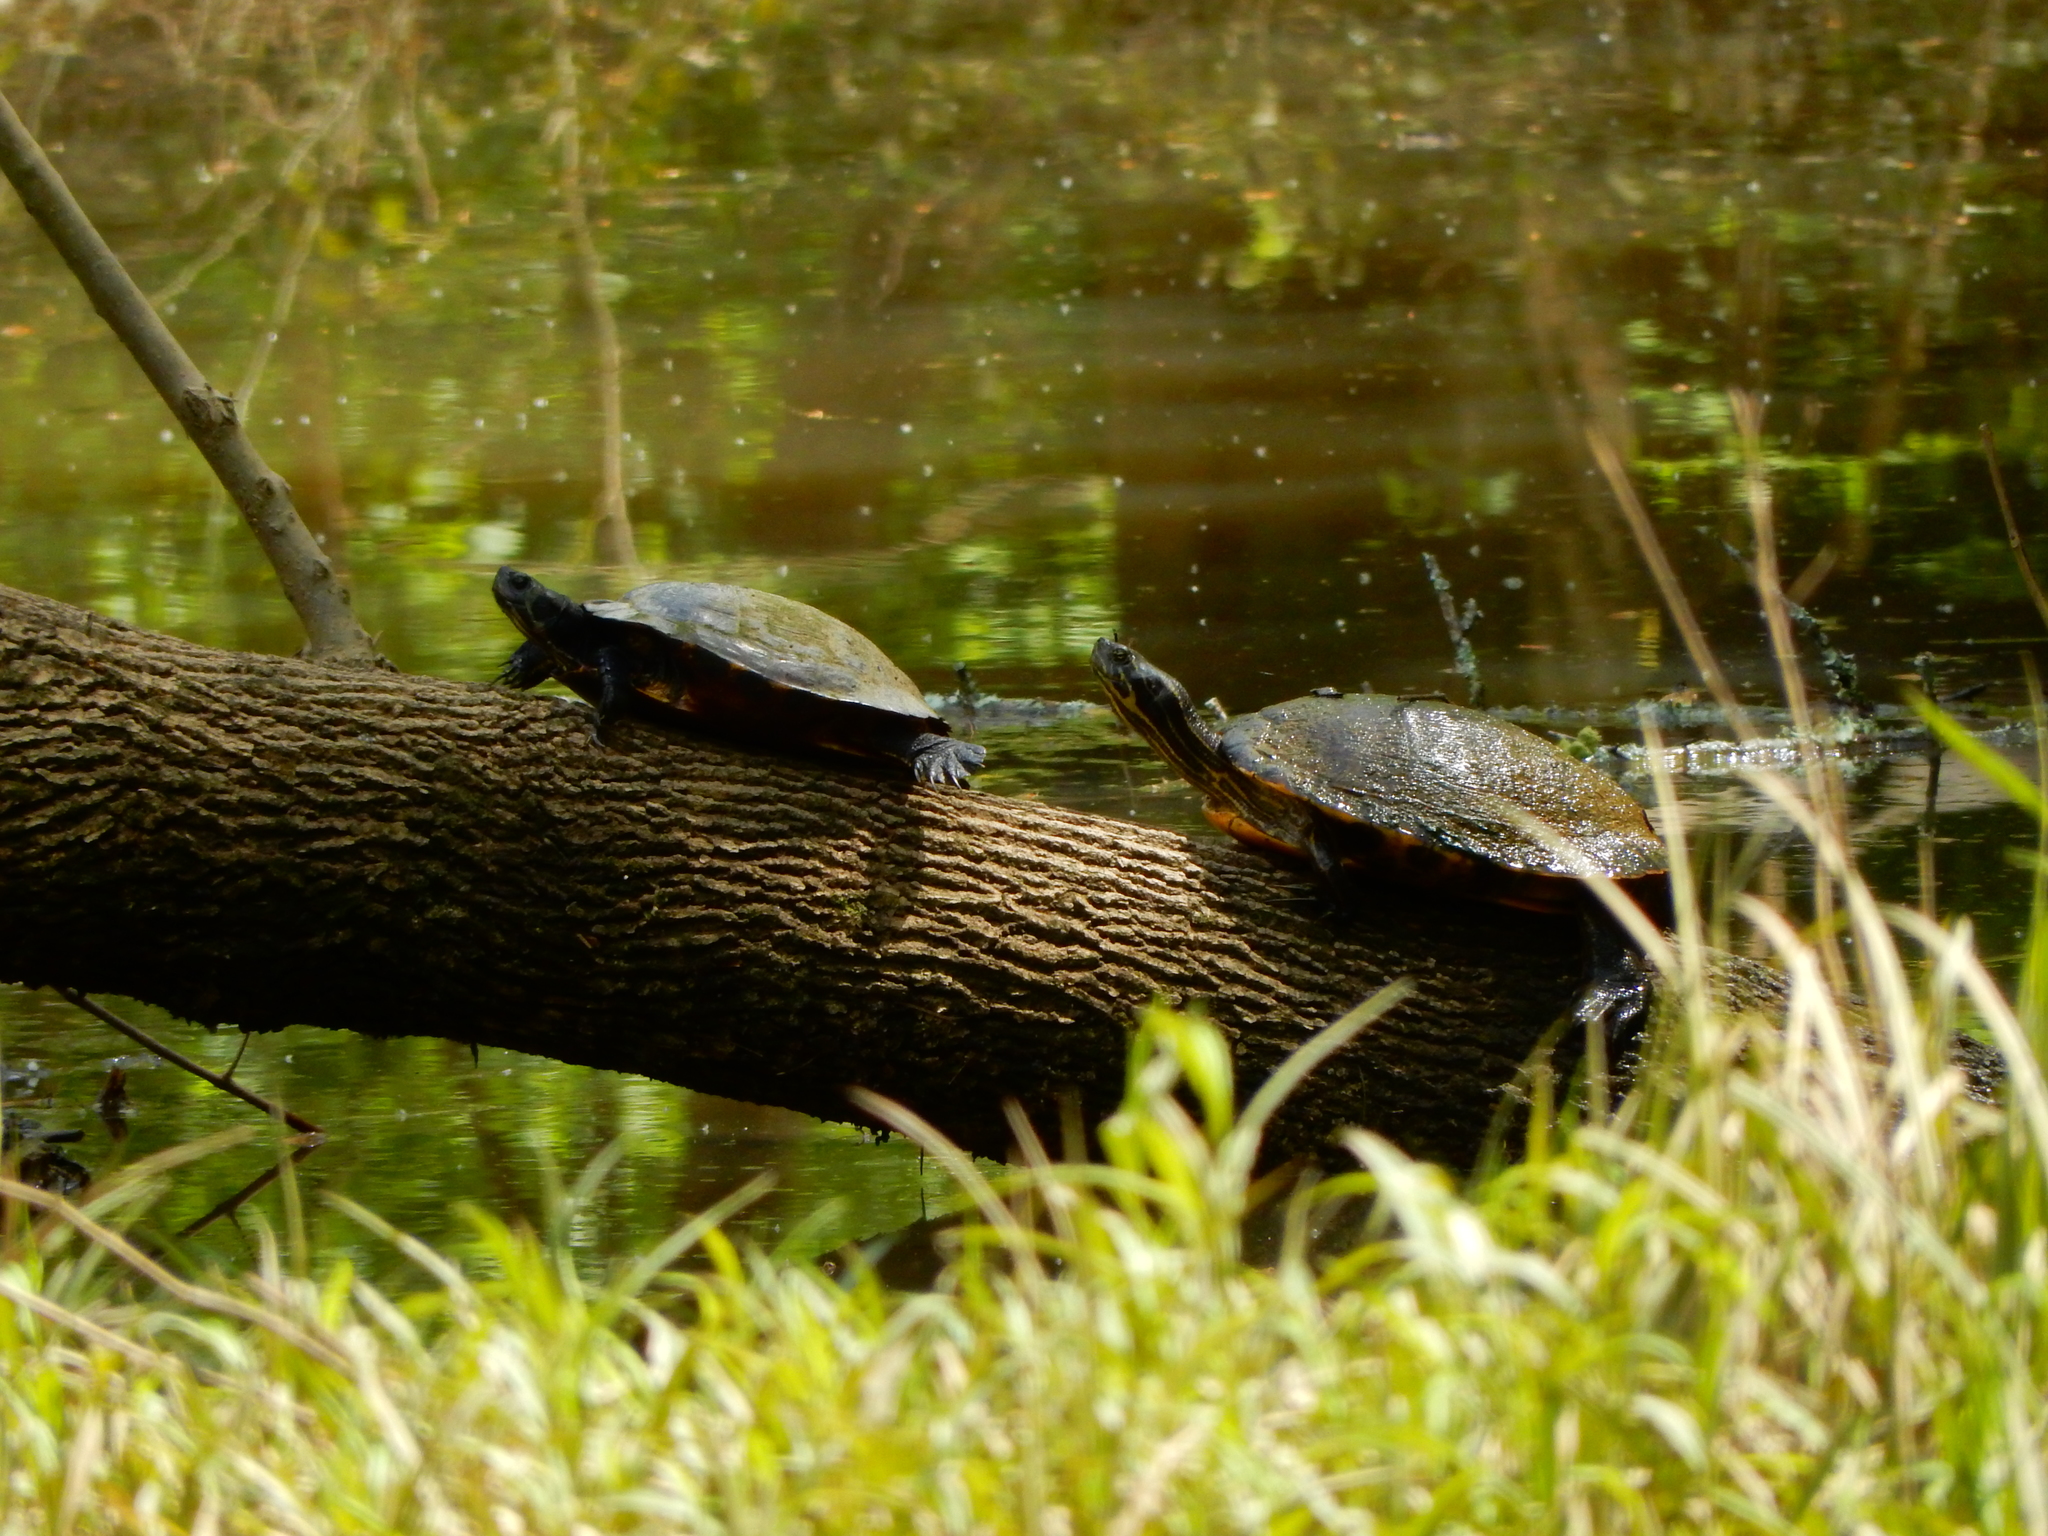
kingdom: Animalia
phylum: Chordata
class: Testudines
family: Emydidae
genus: Trachemys
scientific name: Trachemys scripta
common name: Slider
